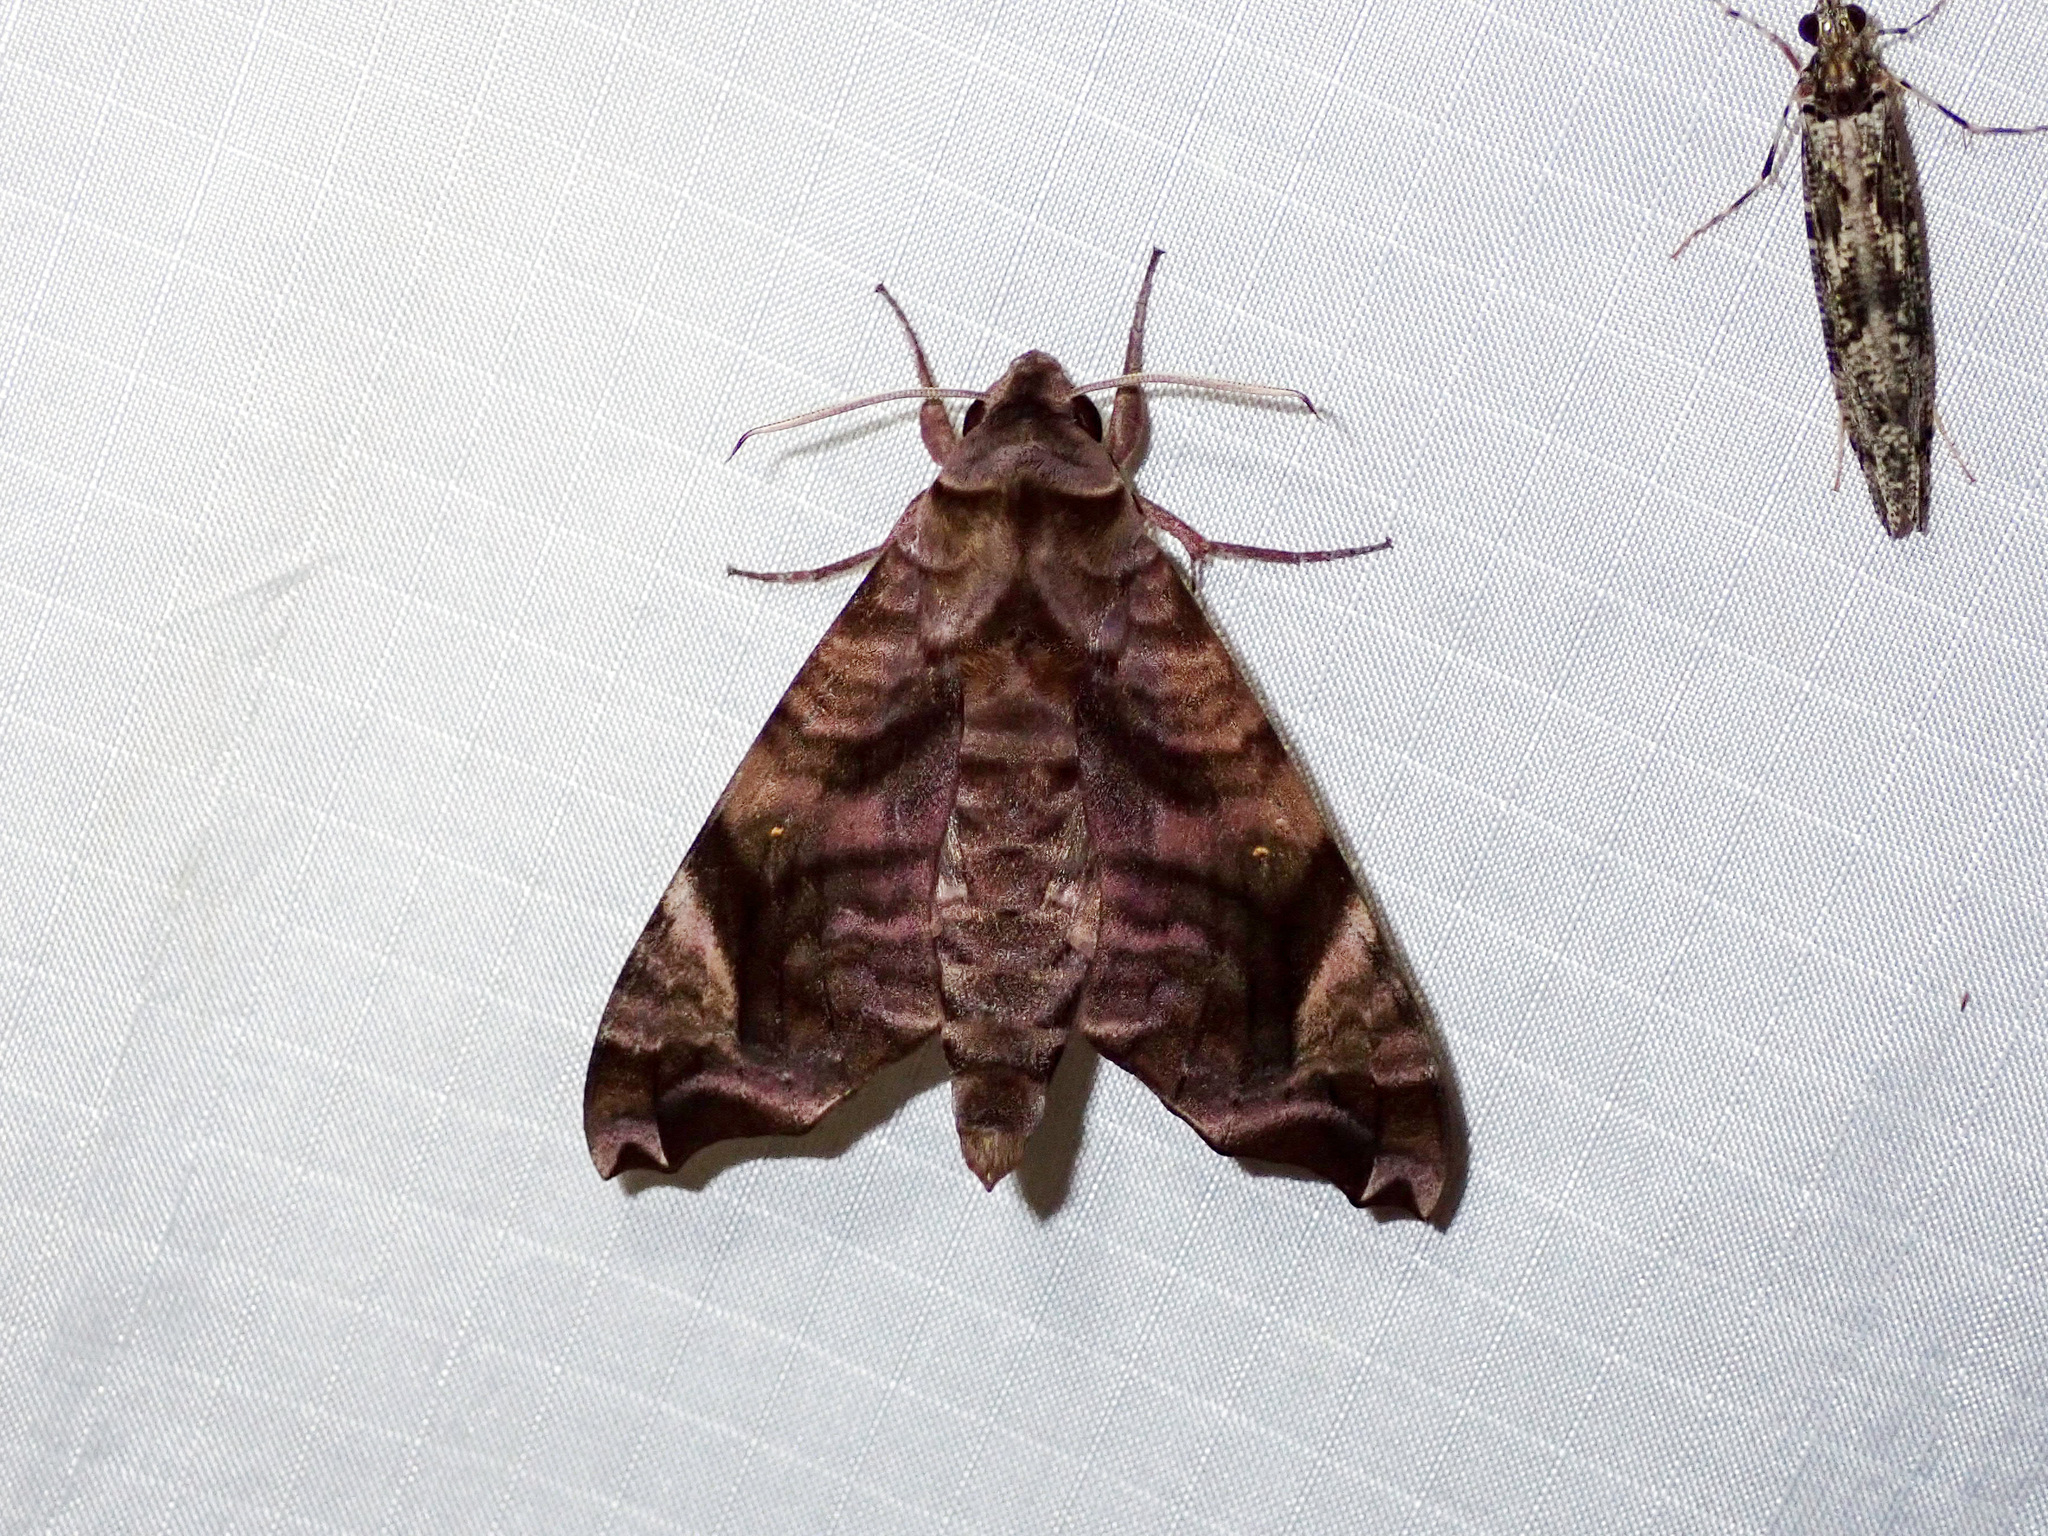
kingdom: Animalia
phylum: Arthropoda
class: Insecta
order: Lepidoptera
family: Sphingidae
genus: Acosmeryx
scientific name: Acosmeryx anceus
